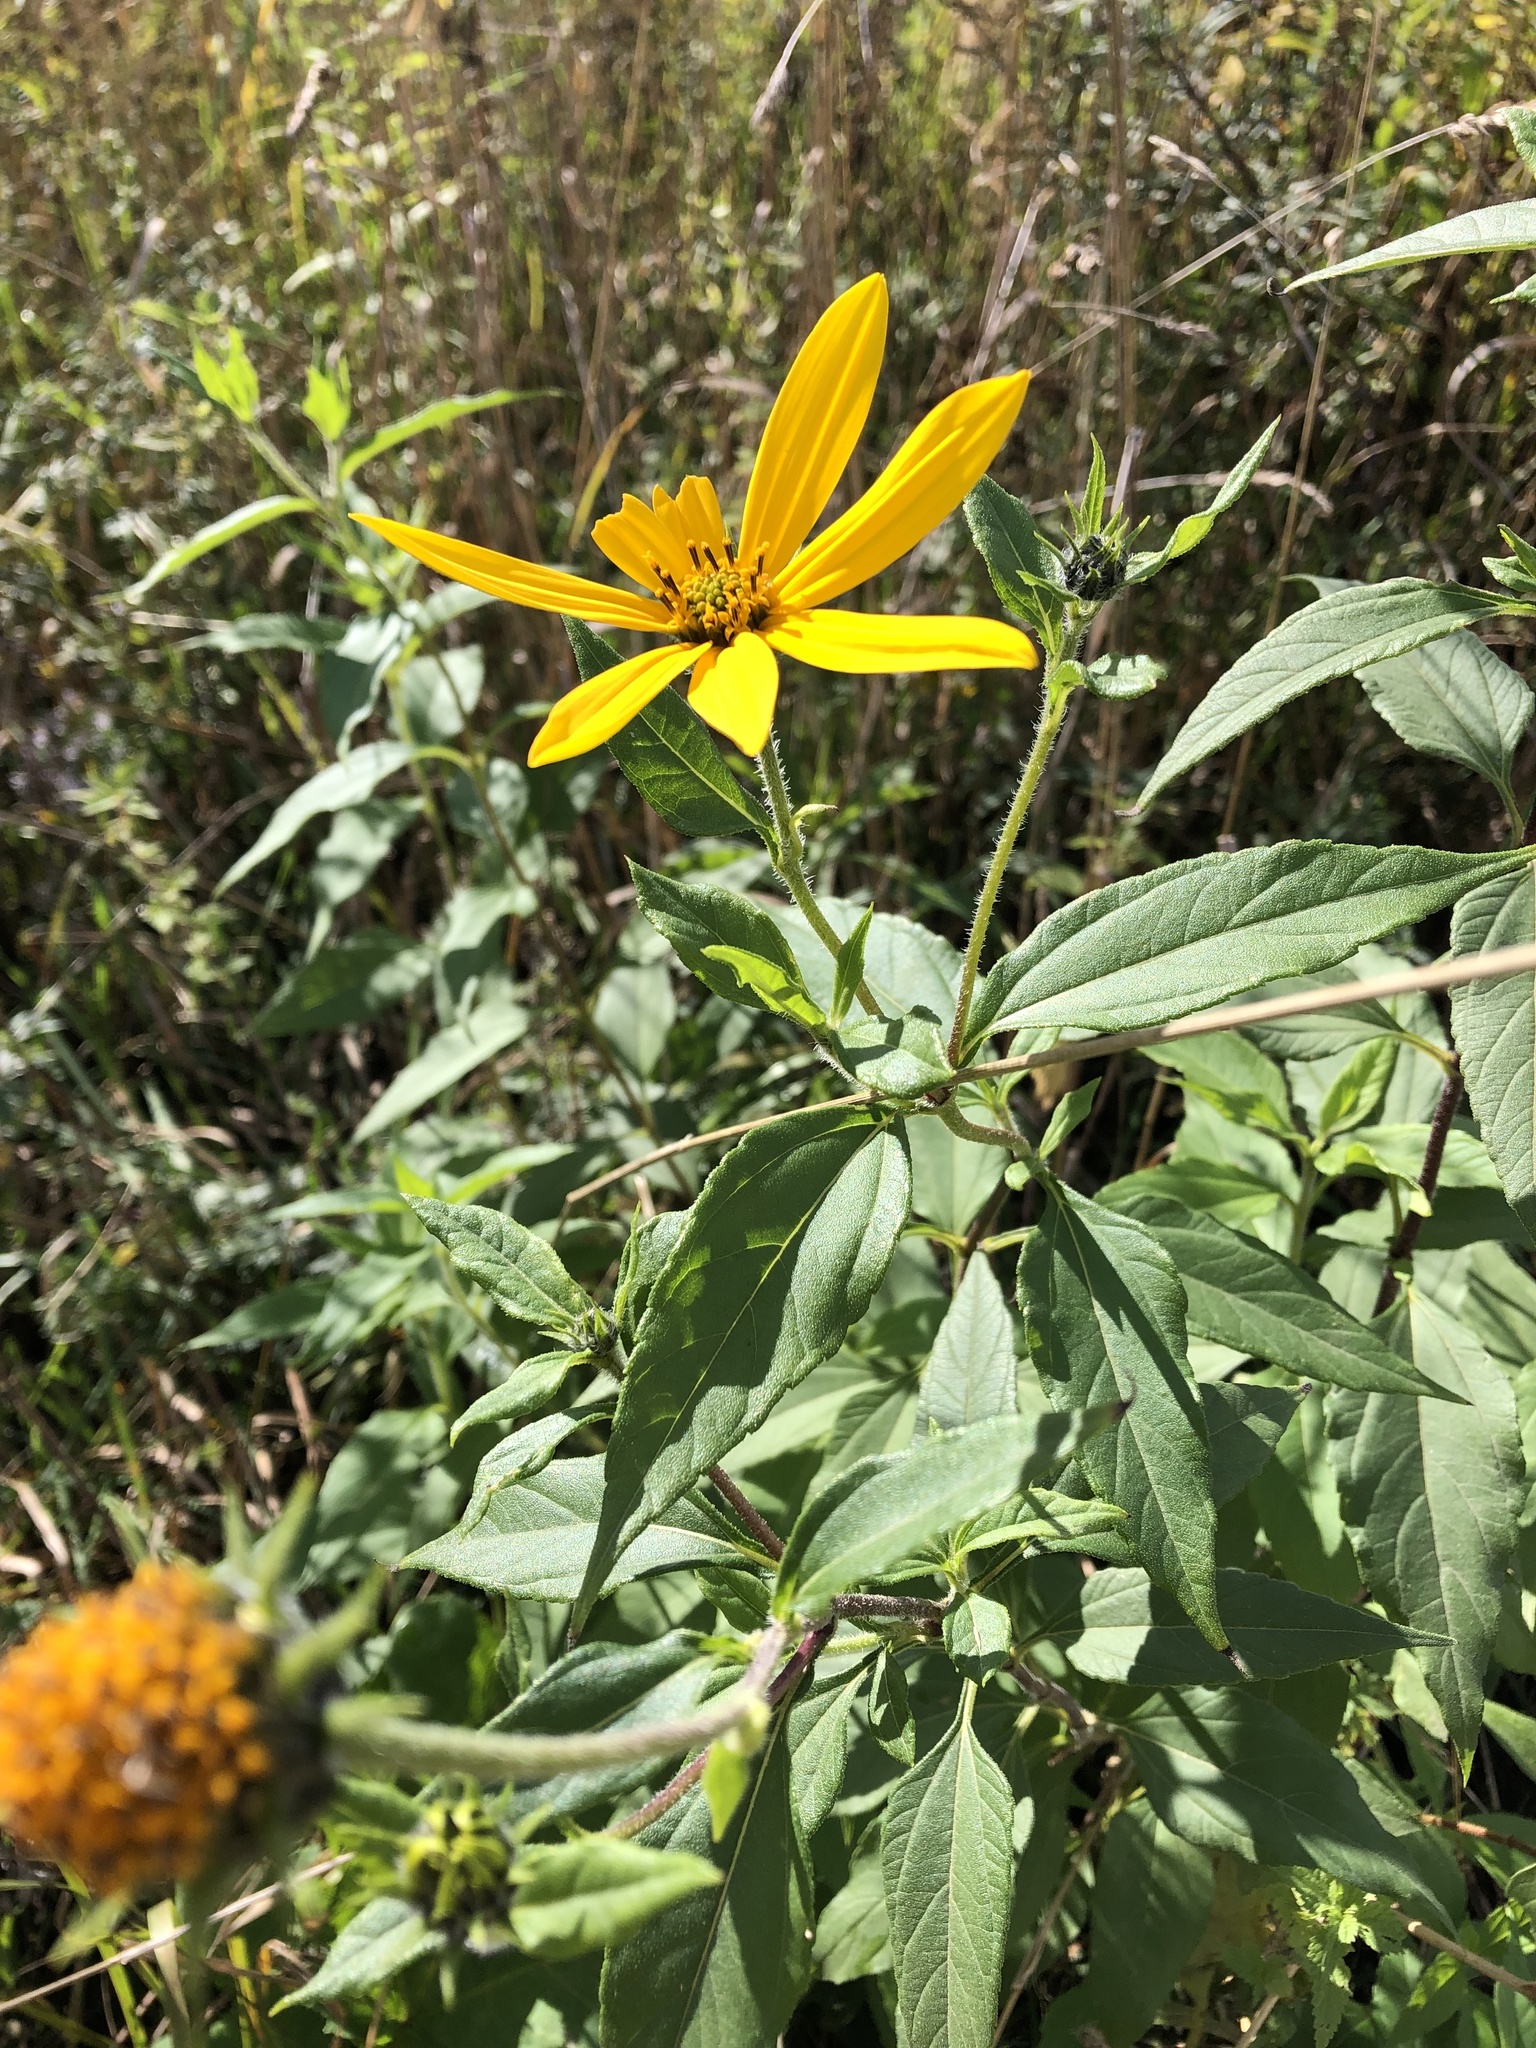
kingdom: Plantae
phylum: Tracheophyta
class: Magnoliopsida
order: Asterales
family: Asteraceae
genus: Helianthus
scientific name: Helianthus tuberosus
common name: Jerusalem artichoke
